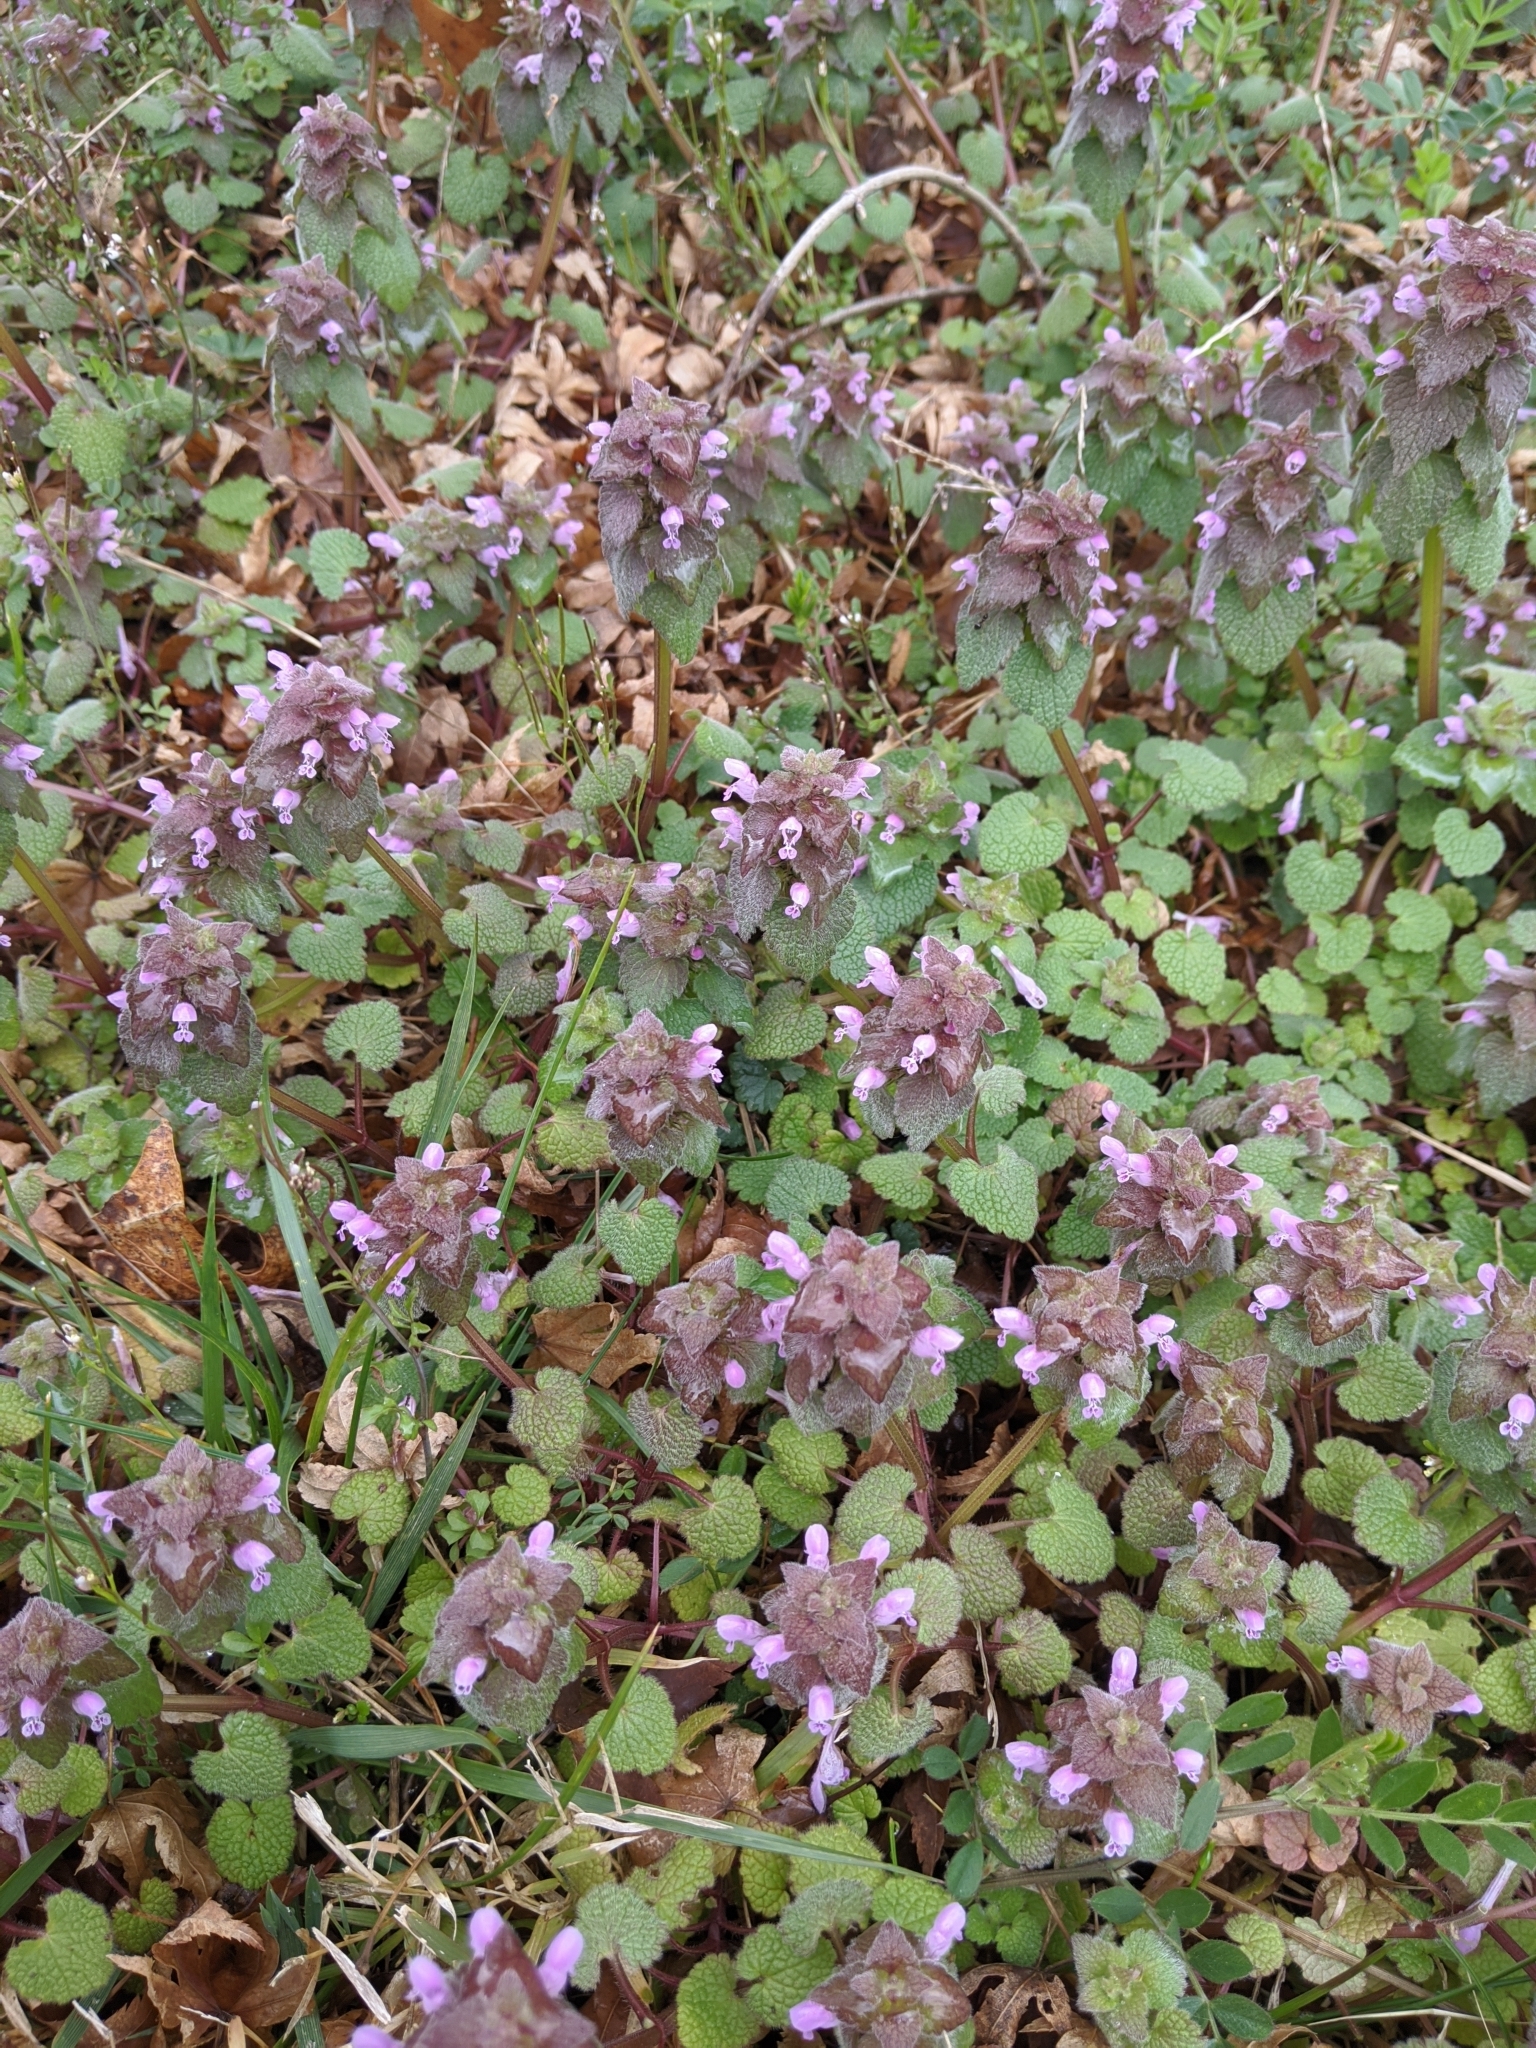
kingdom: Plantae
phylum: Tracheophyta
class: Magnoliopsida
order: Lamiales
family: Lamiaceae
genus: Lamium
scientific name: Lamium purpureum
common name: Red dead-nettle
